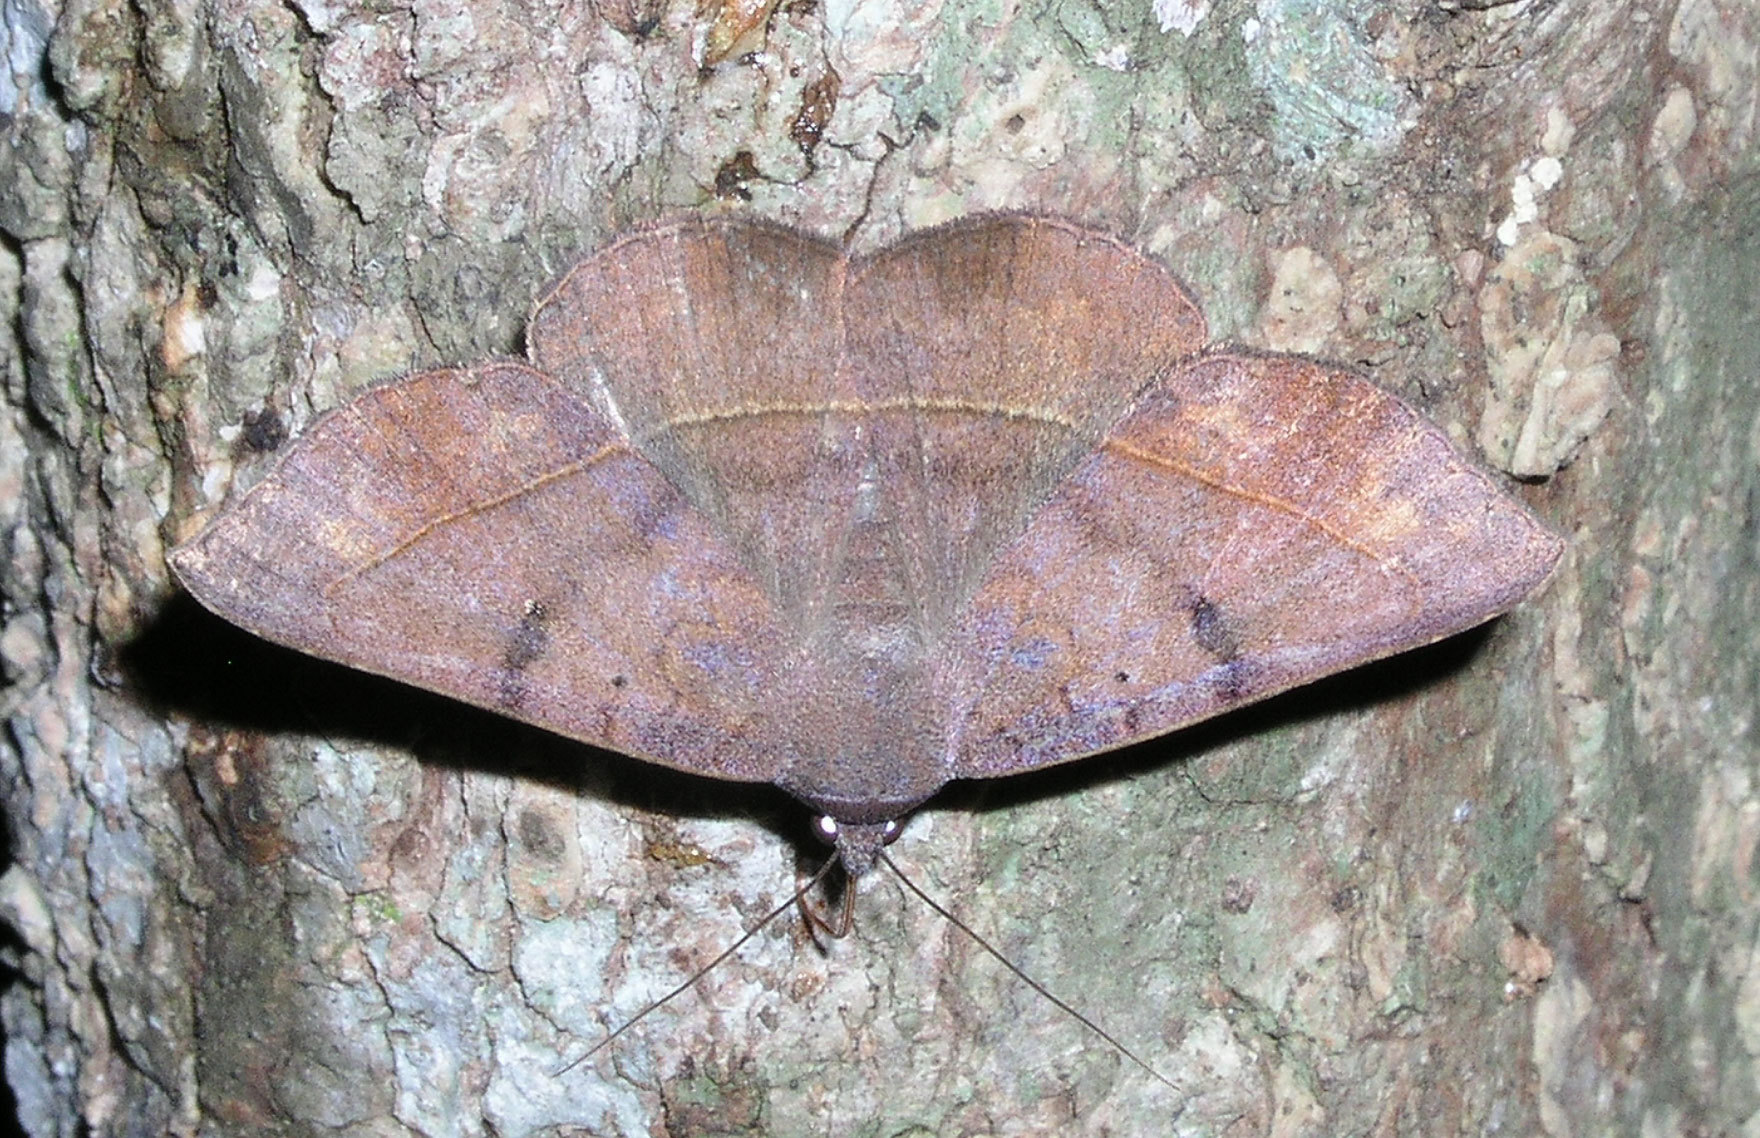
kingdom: Animalia
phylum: Arthropoda
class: Insecta
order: Lepidoptera
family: Erebidae
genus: Metallata
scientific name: Metallata absumens
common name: Brown leaf mimic
